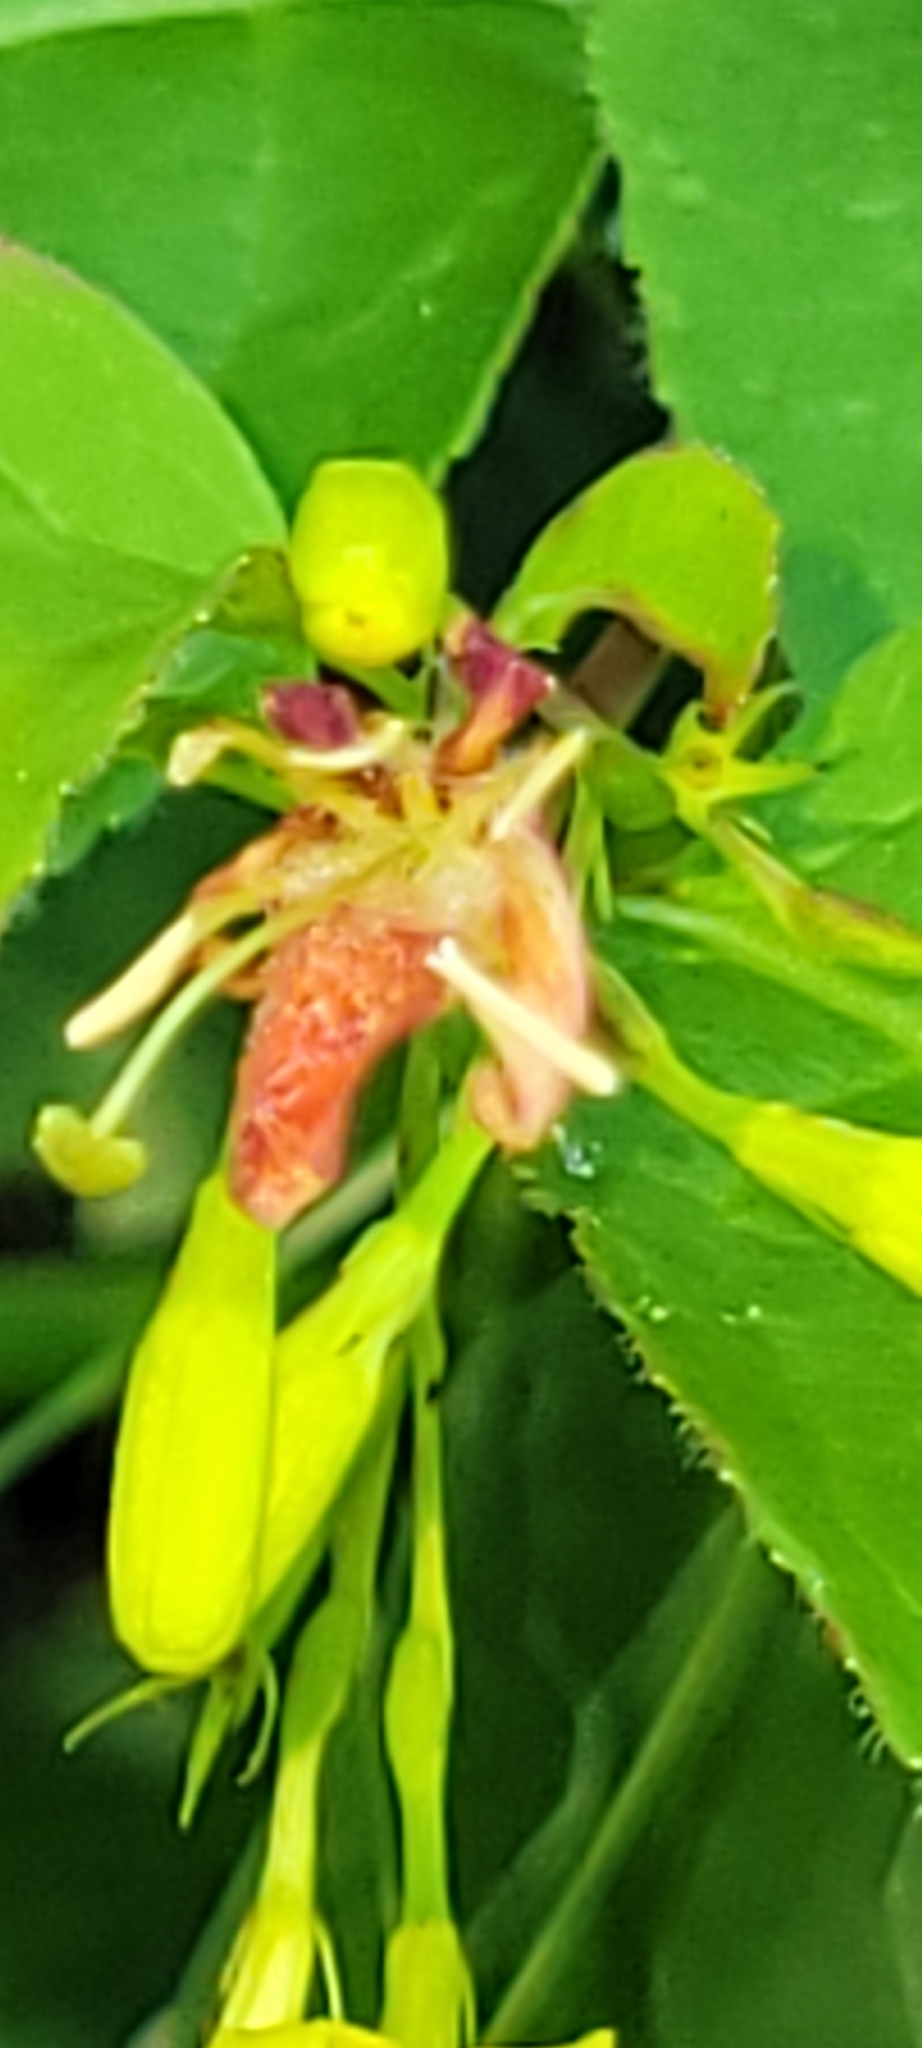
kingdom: Plantae
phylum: Tracheophyta
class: Magnoliopsida
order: Dipsacales
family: Caprifoliaceae
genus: Diervilla
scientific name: Diervilla lonicera
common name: Bush-honeysuckle
